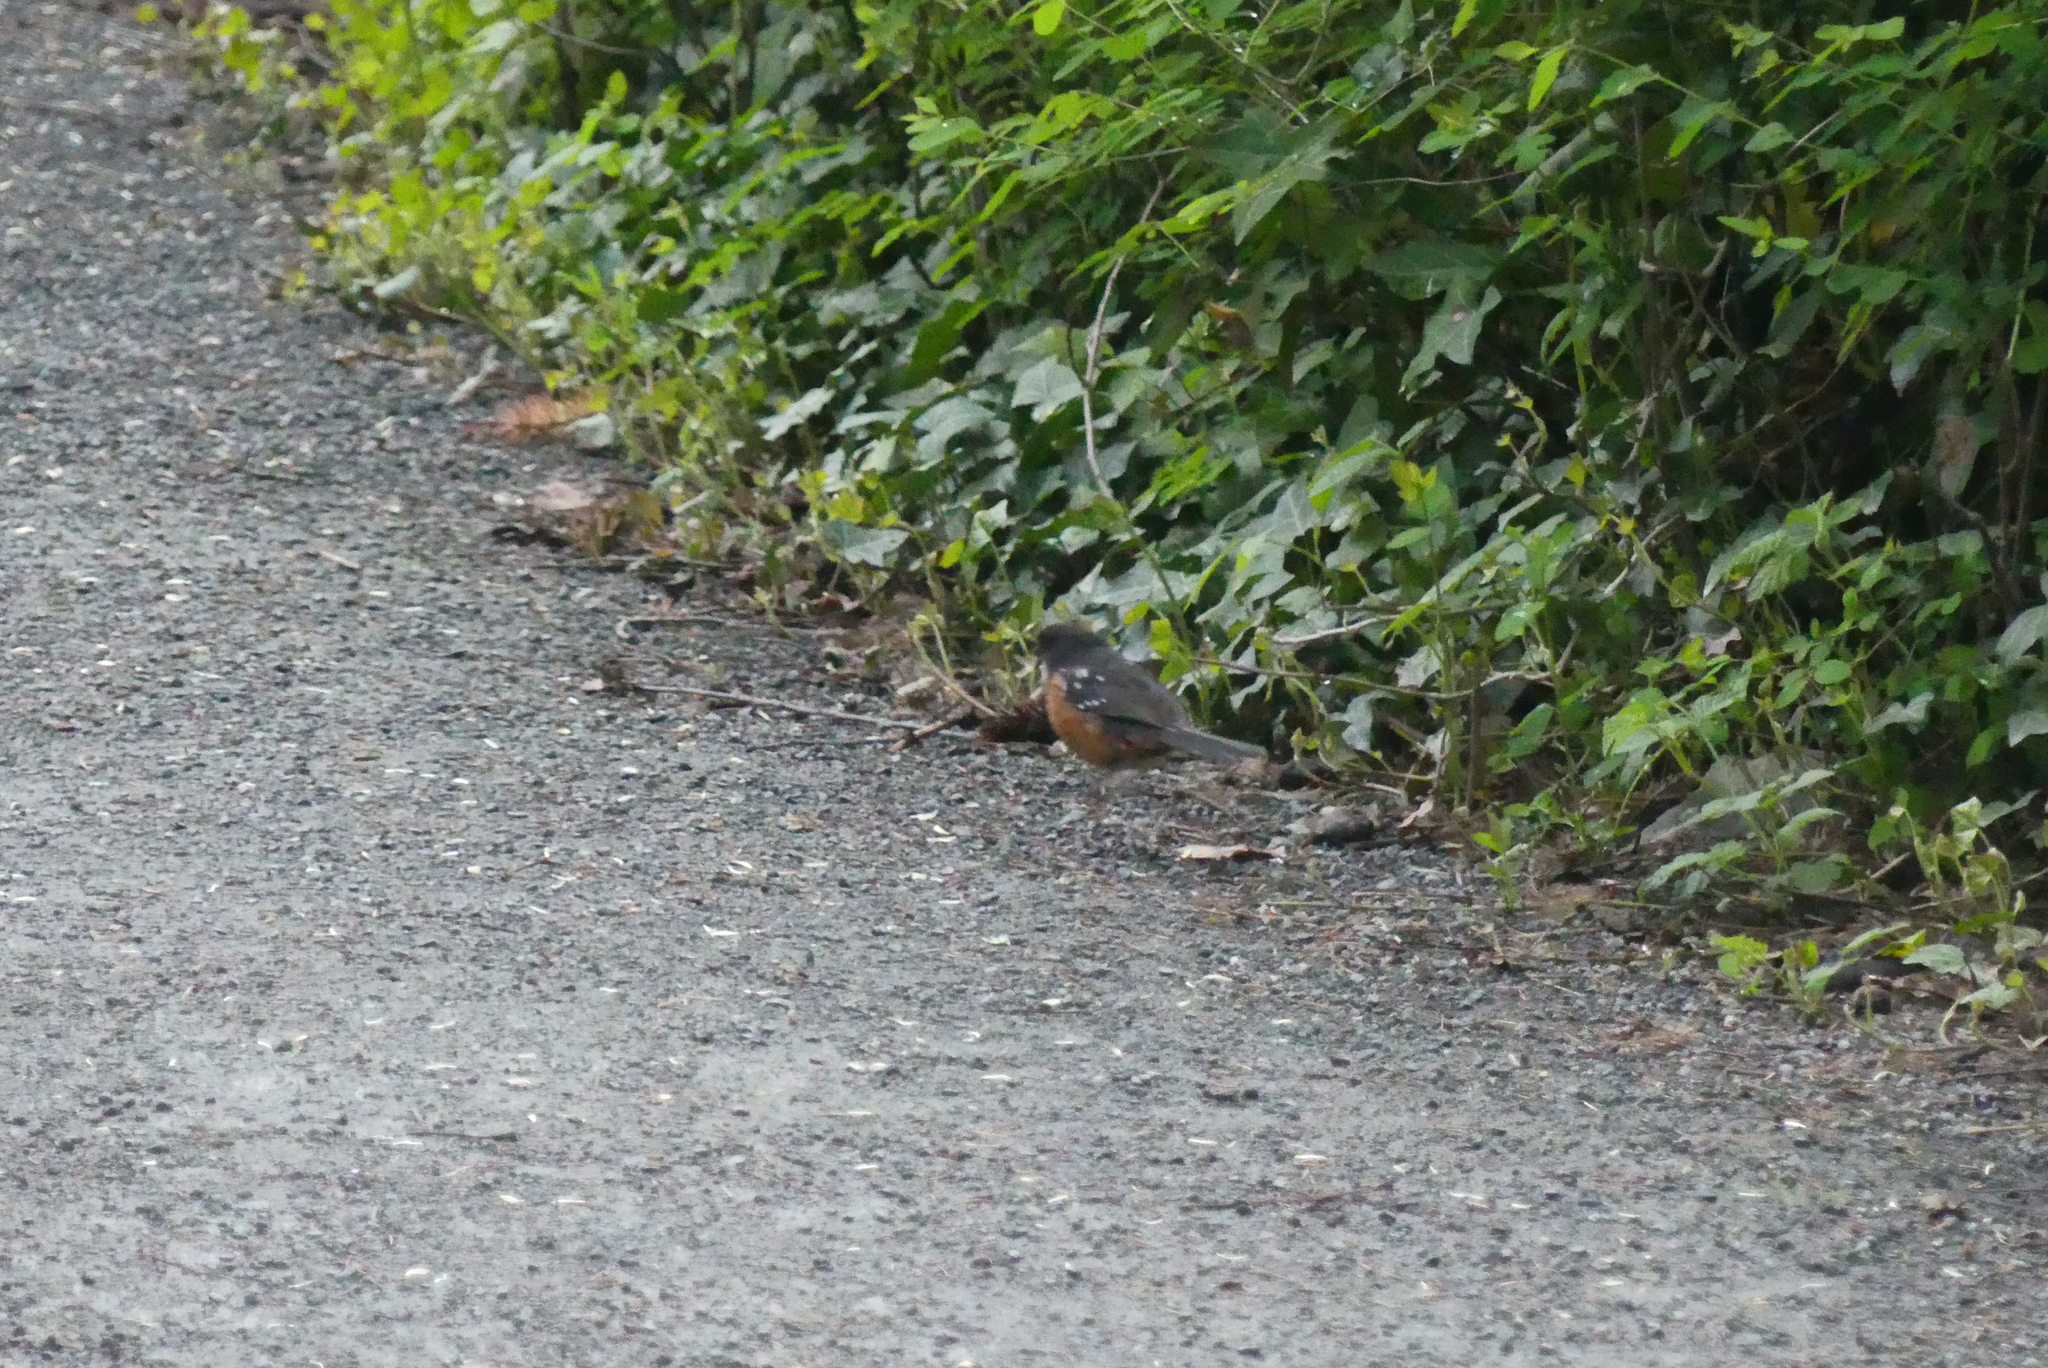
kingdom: Animalia
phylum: Chordata
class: Aves
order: Passeriformes
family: Passerellidae
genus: Pipilo
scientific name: Pipilo maculatus
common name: Spotted towhee
